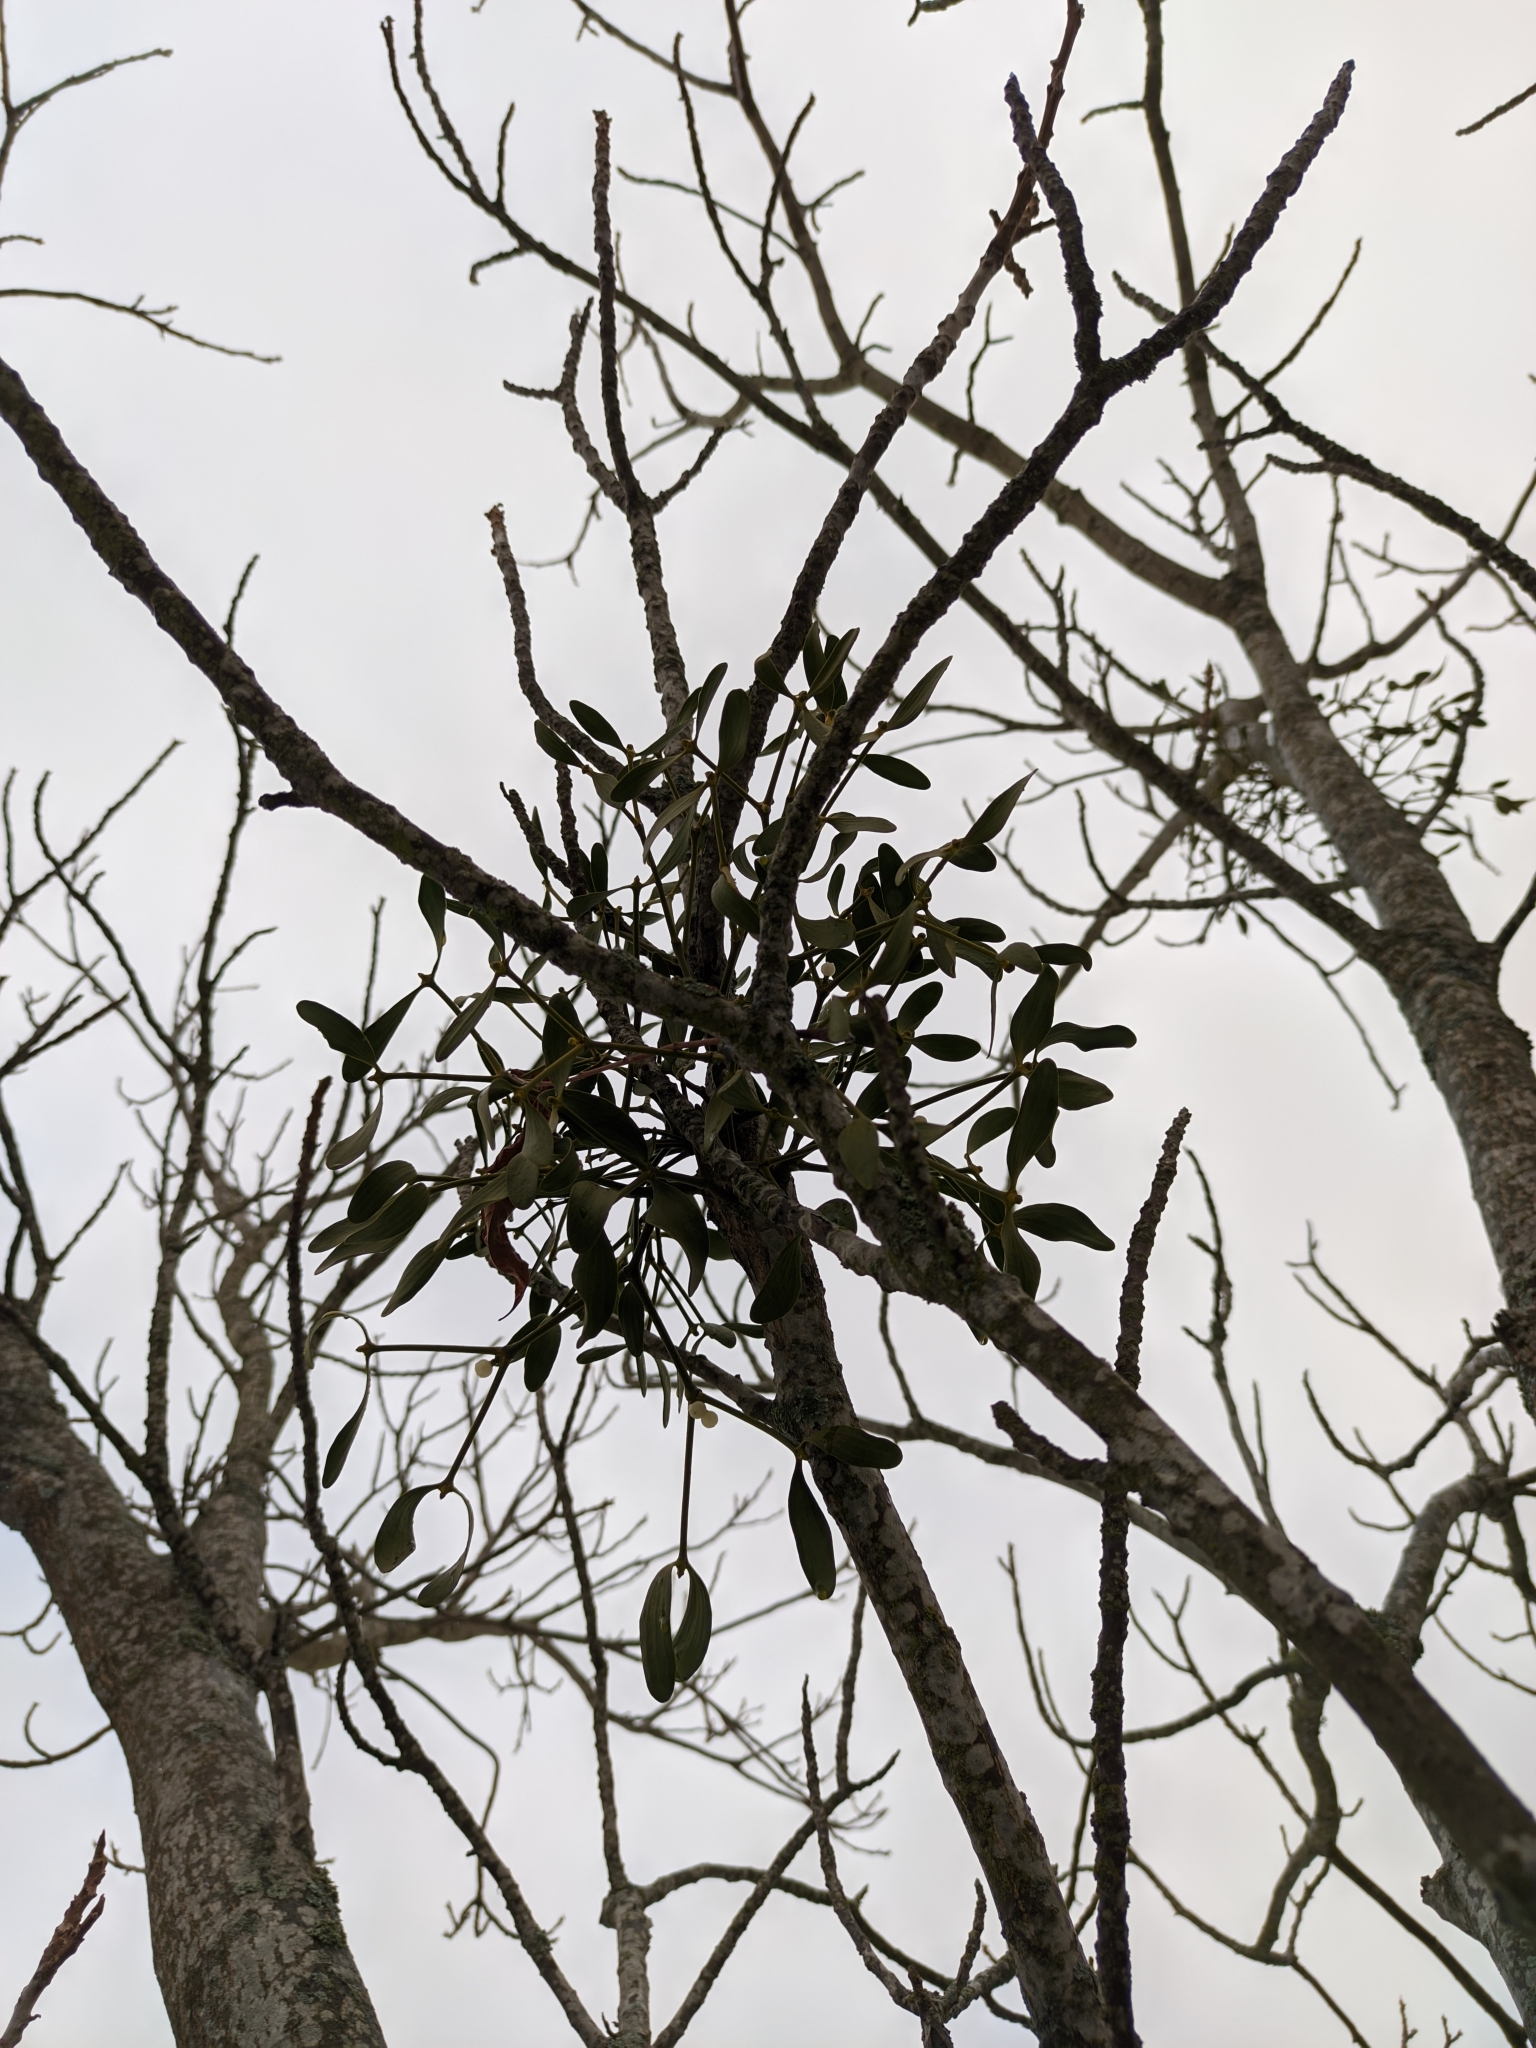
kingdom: Plantae
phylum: Tracheophyta
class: Magnoliopsida
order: Santalales
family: Viscaceae
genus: Viscum
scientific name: Viscum album
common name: Mistletoe
